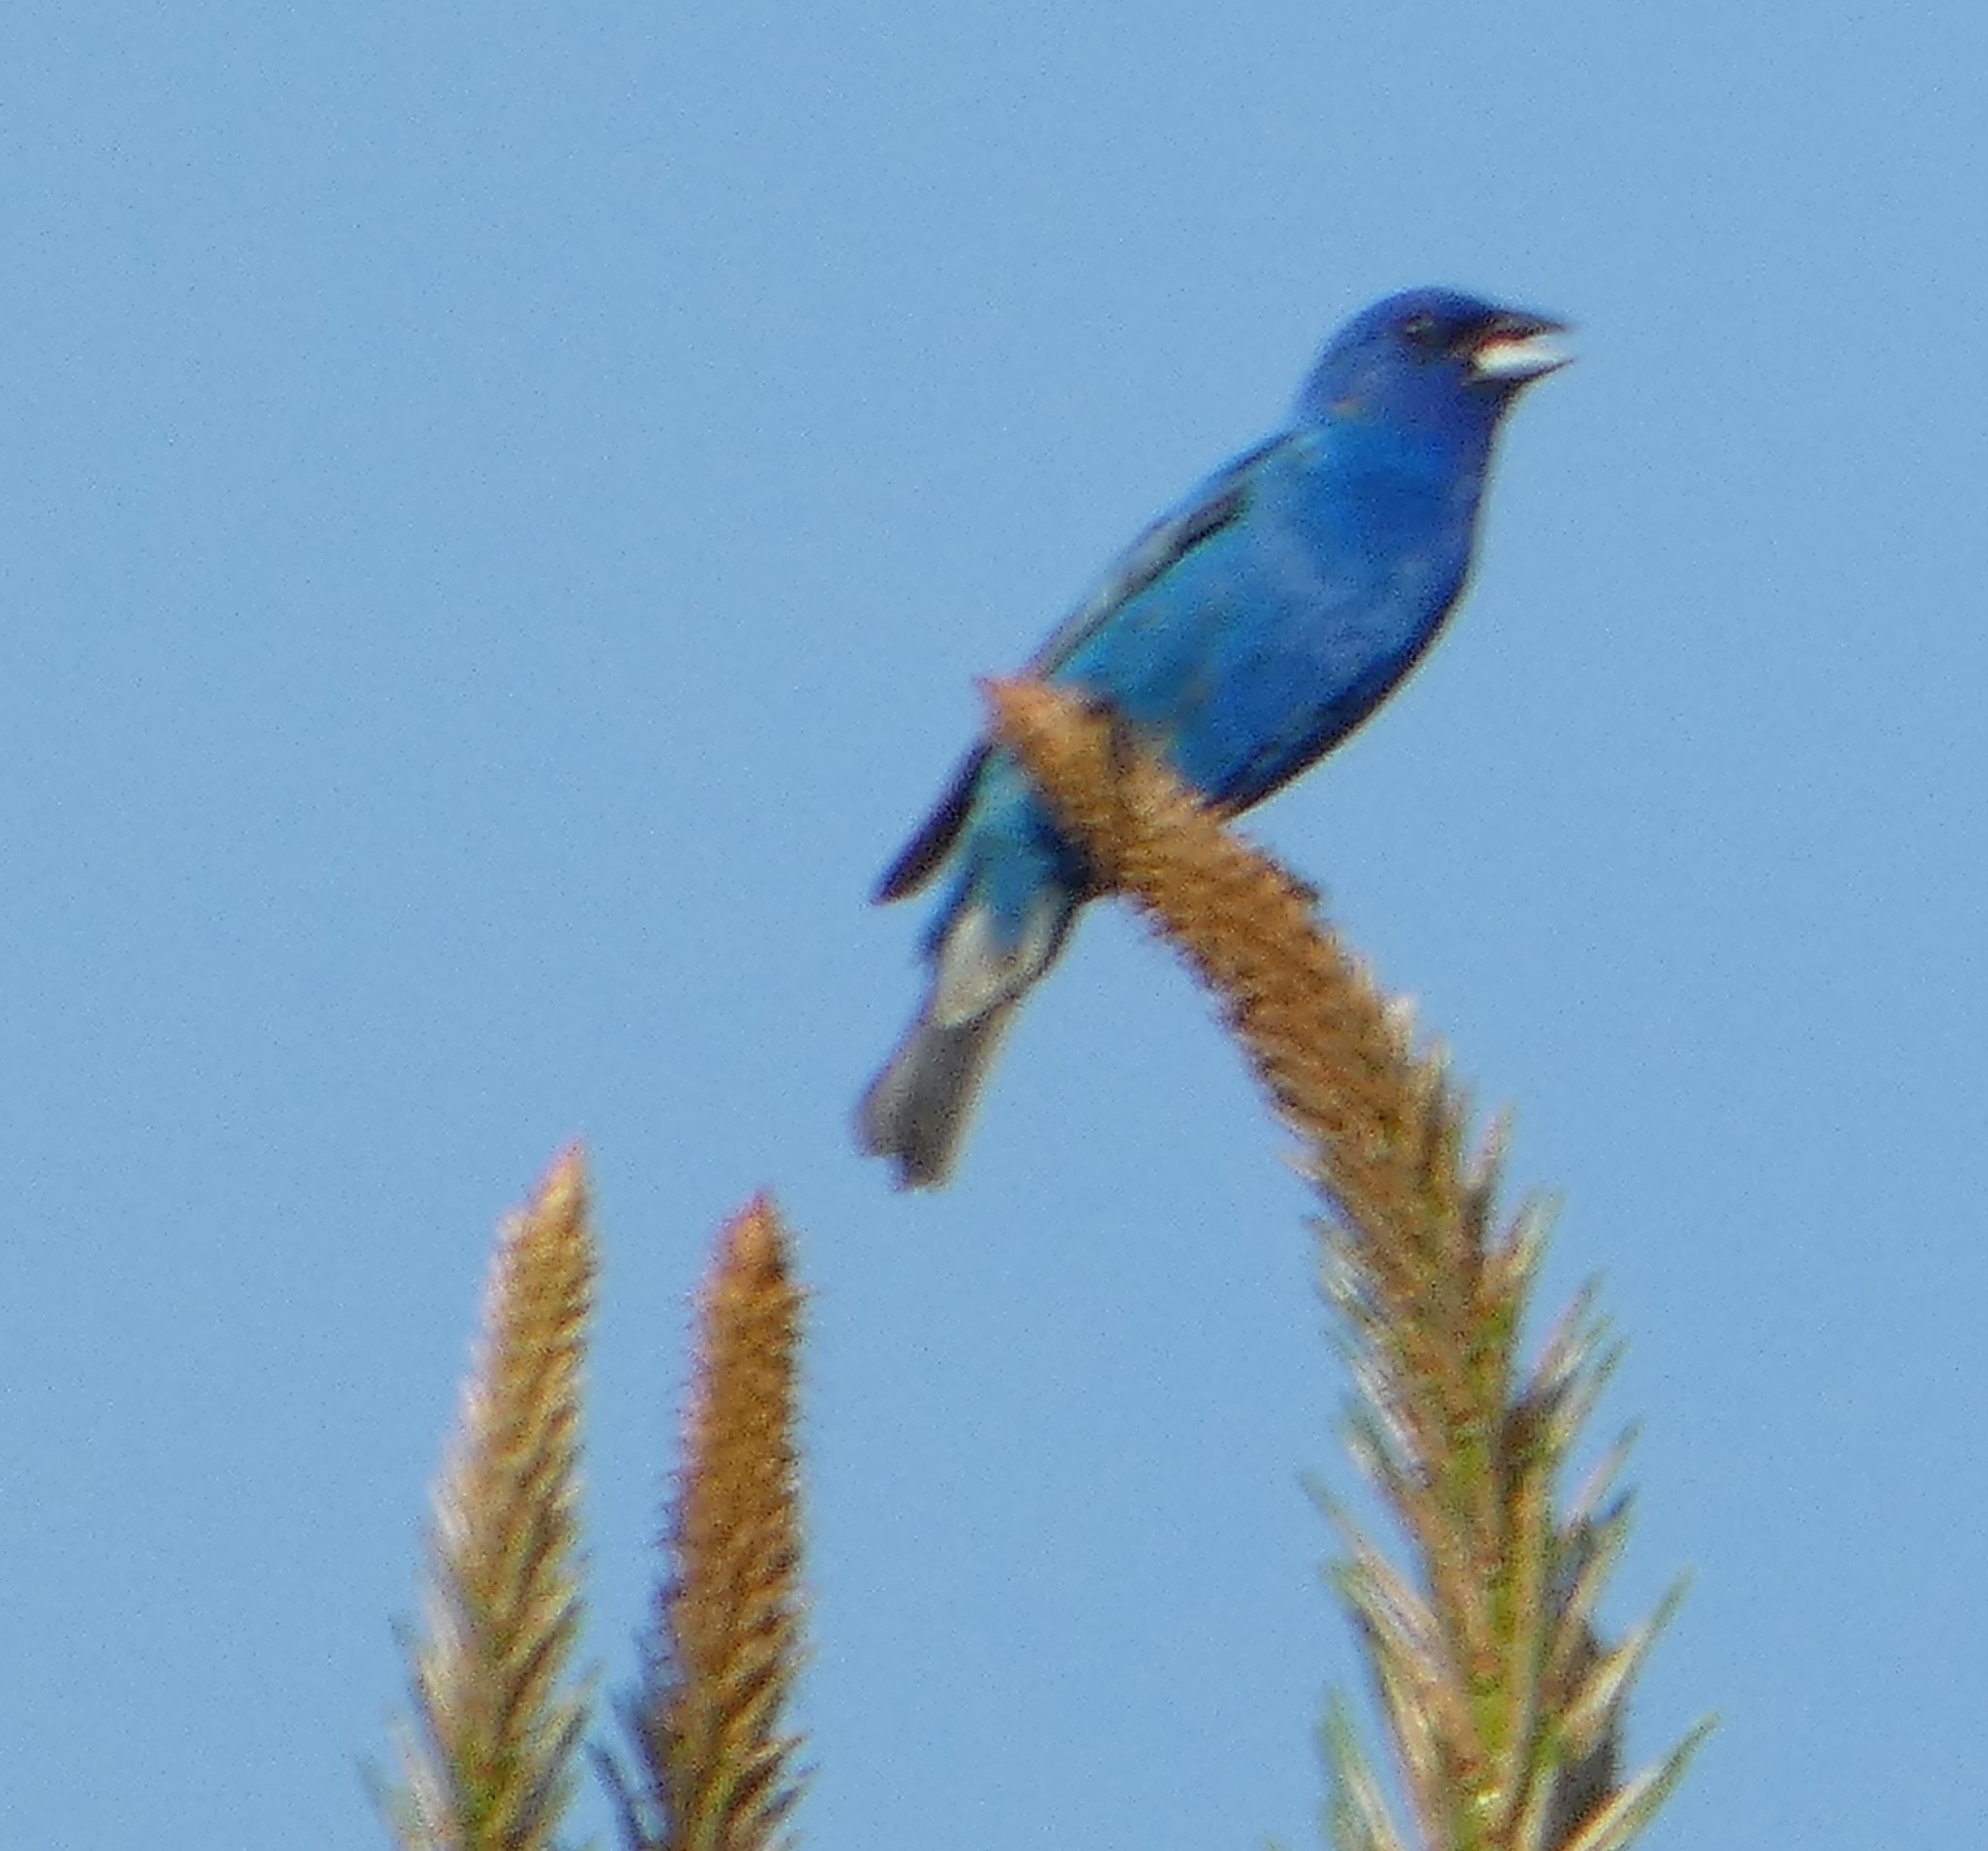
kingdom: Animalia
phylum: Chordata
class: Aves
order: Passeriformes
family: Cardinalidae
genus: Passerina
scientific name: Passerina cyanea
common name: Indigo bunting
